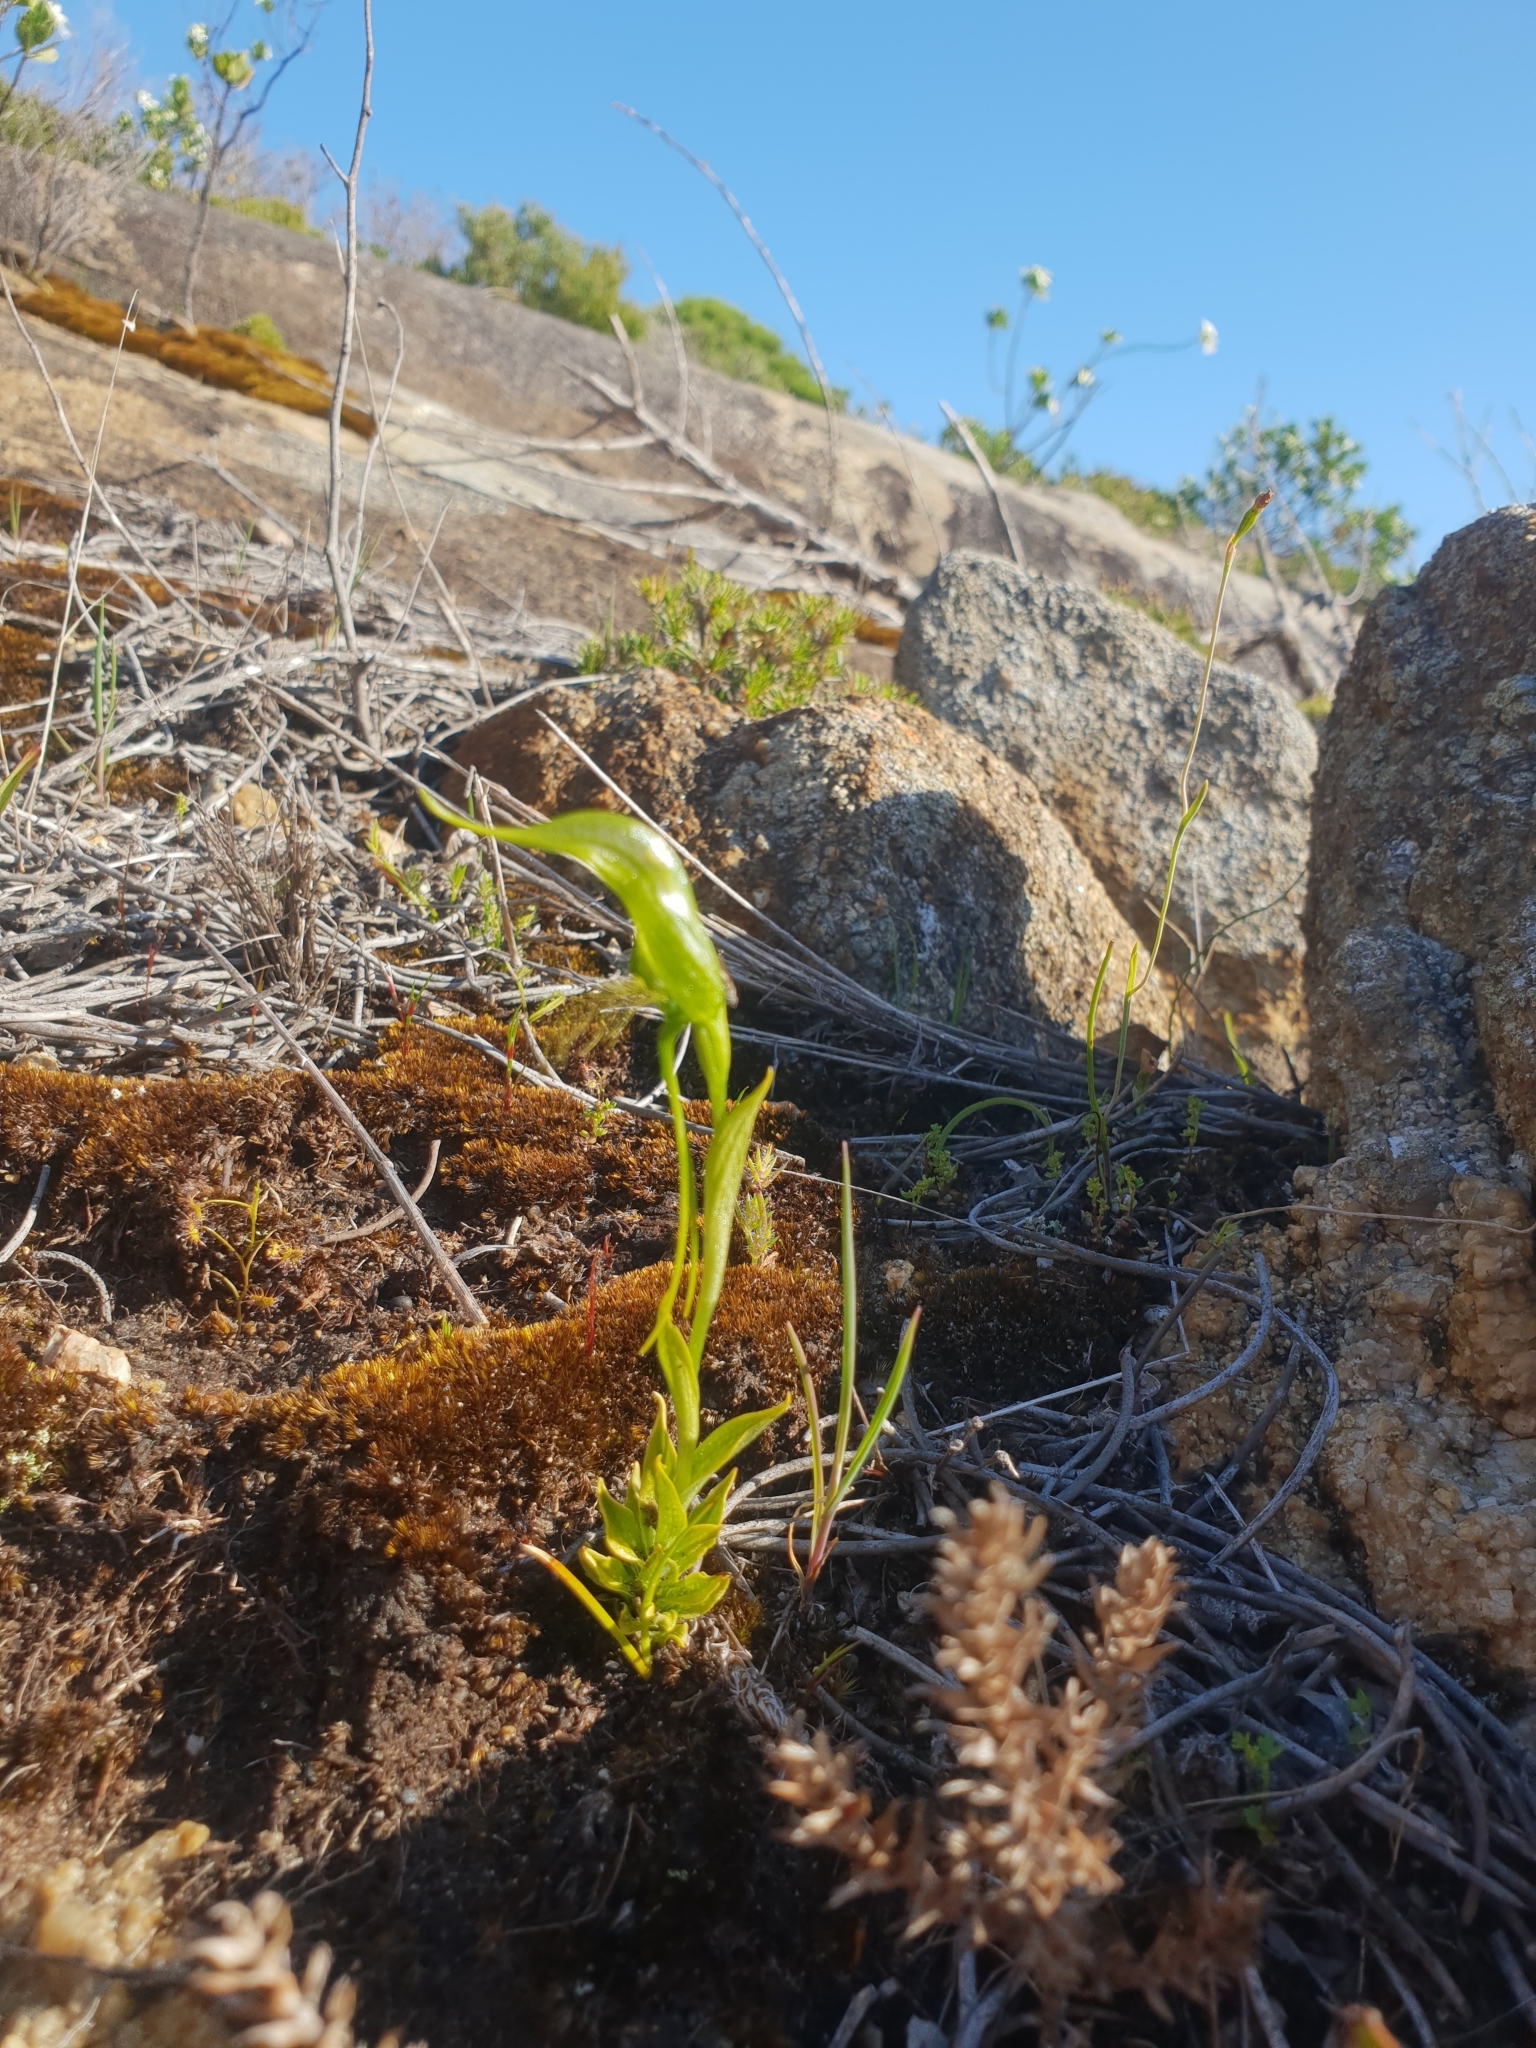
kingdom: Plantae
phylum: Tracheophyta
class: Liliopsida
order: Asparagales
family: Orchidaceae
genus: Pterostylis
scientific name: Pterostylis saxosa
